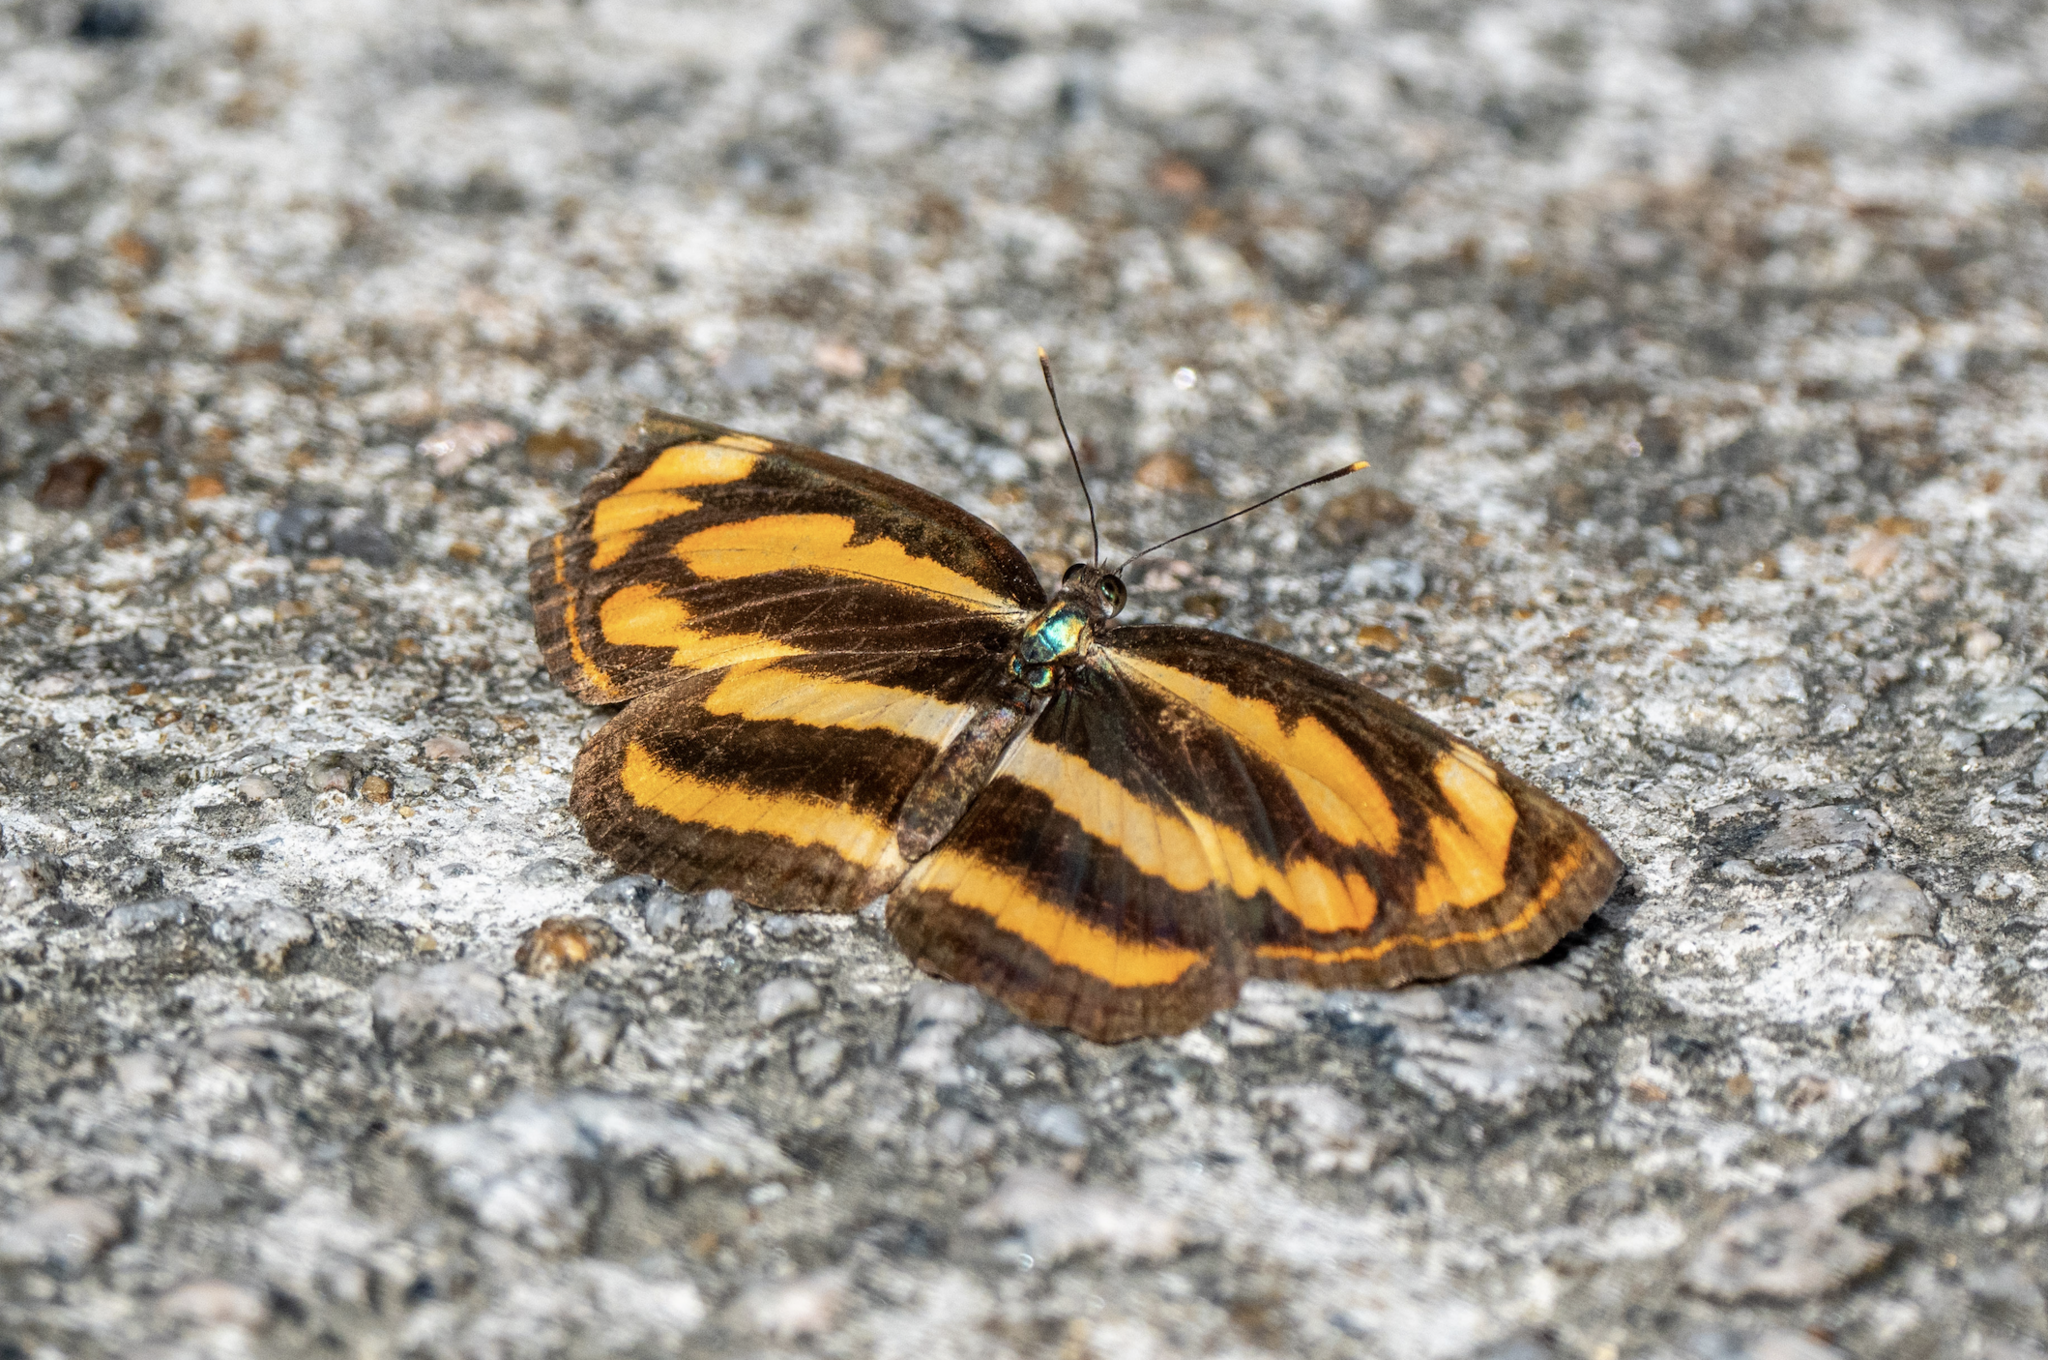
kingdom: Animalia
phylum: Arthropoda
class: Insecta
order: Lepidoptera
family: Nymphalidae
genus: Pantoporia
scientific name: Pantoporia hordonia
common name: Common lascar
